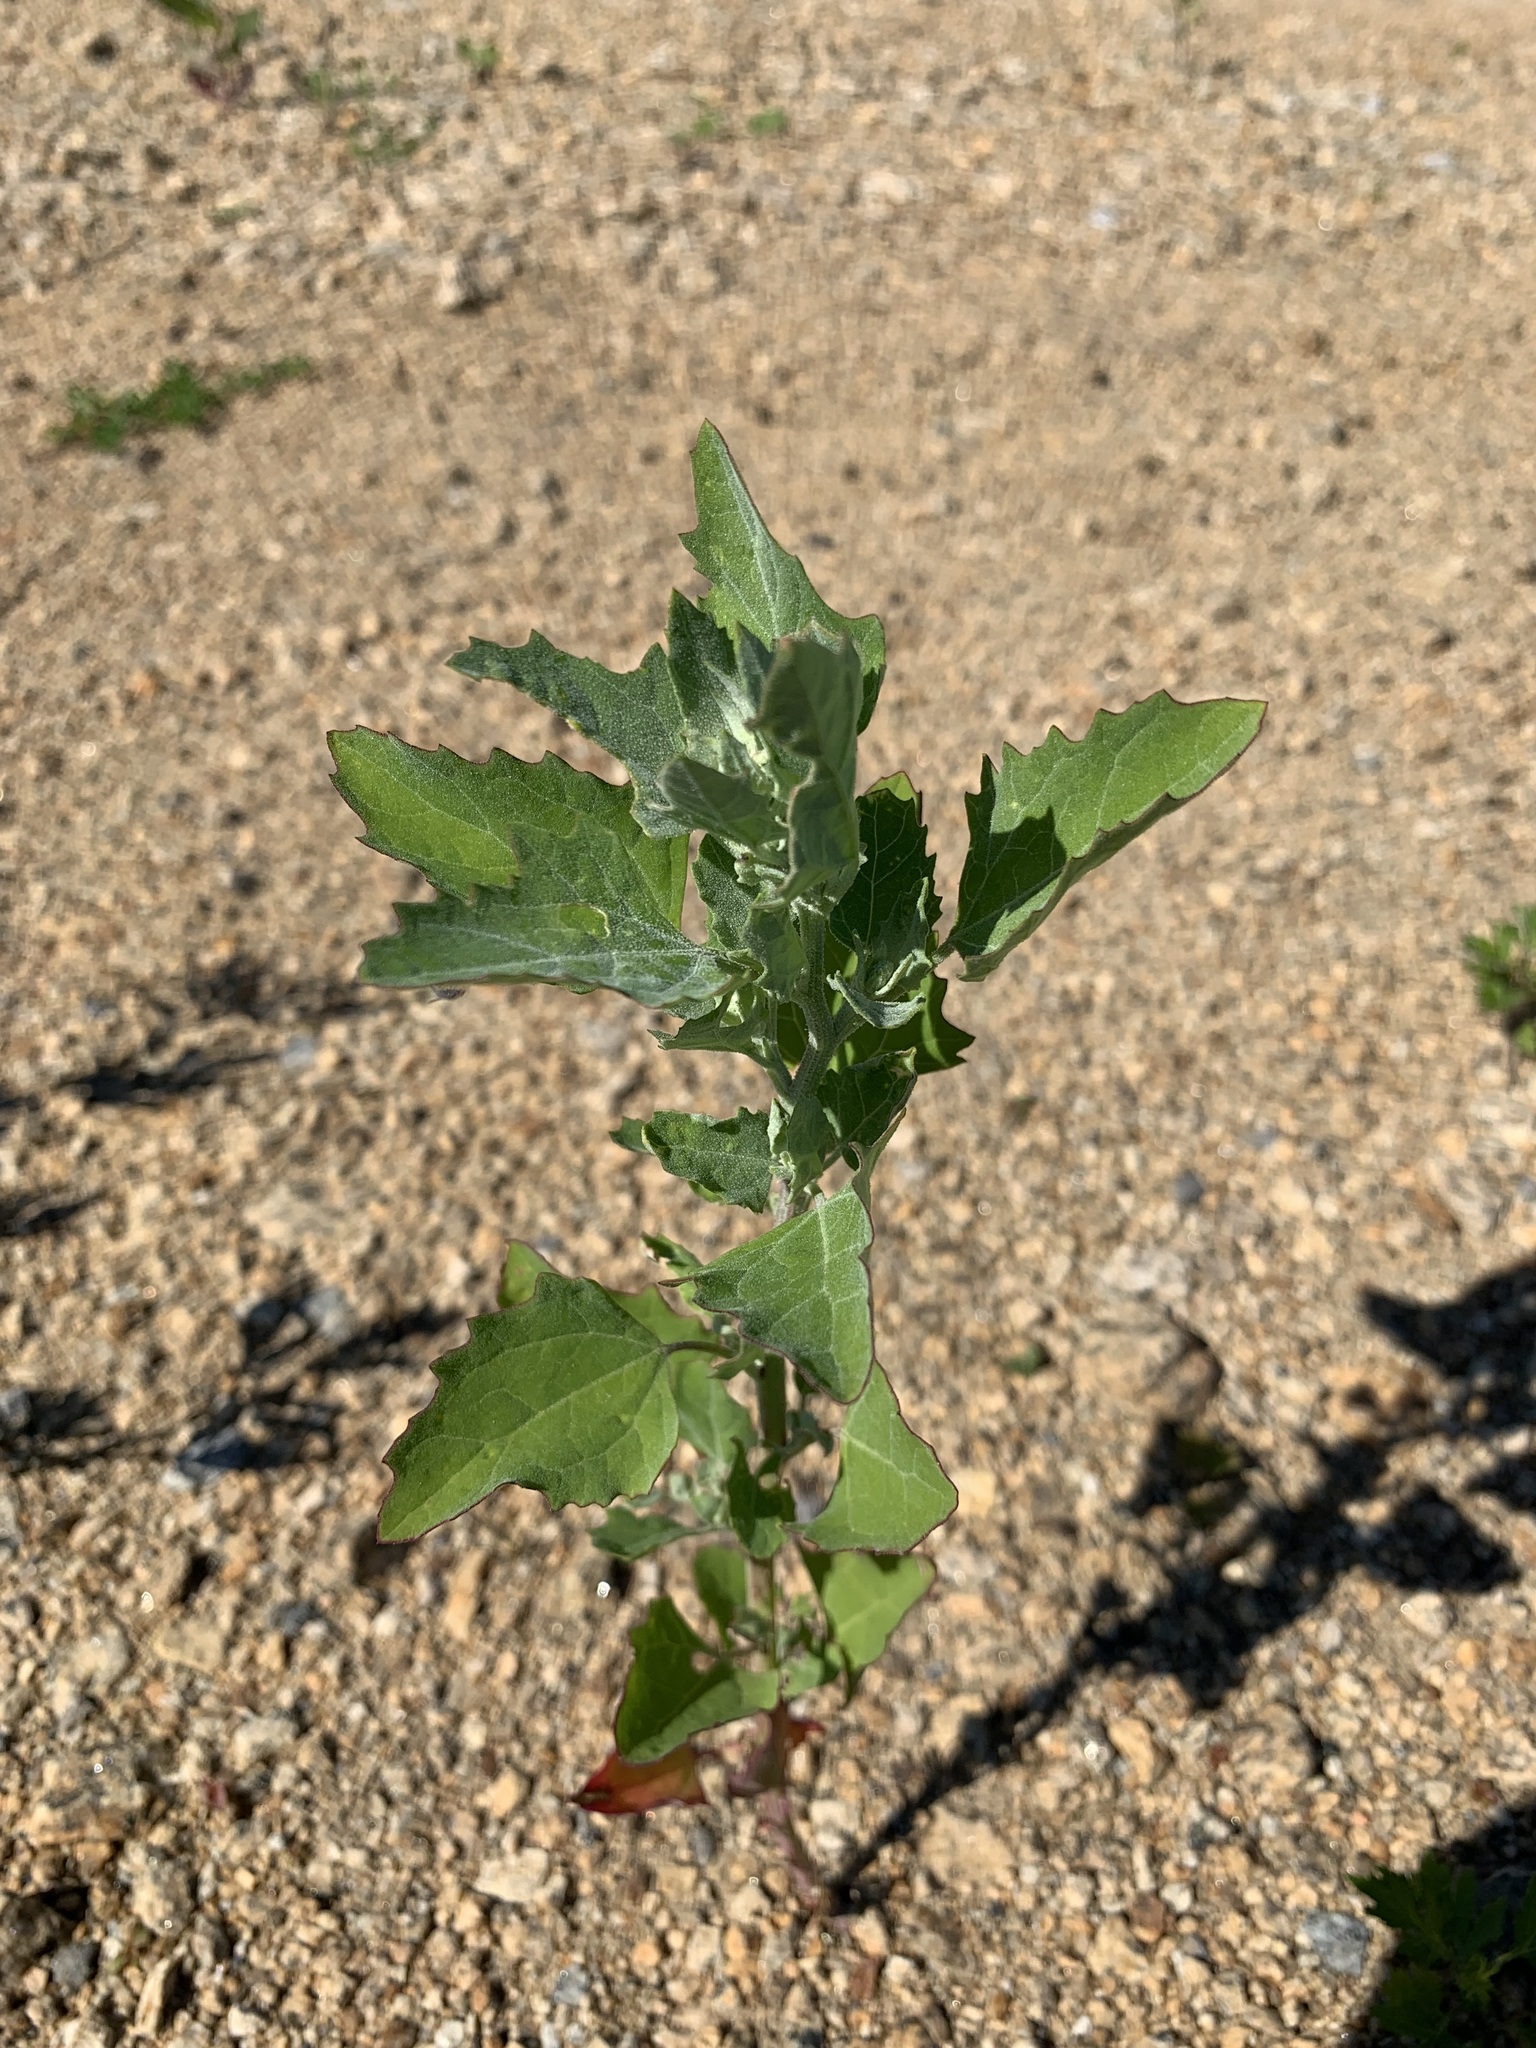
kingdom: Plantae
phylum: Tracheophyta
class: Magnoliopsida
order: Caryophyllales
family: Amaranthaceae
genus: Chenopodium
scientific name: Chenopodium album
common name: Fat-hen
